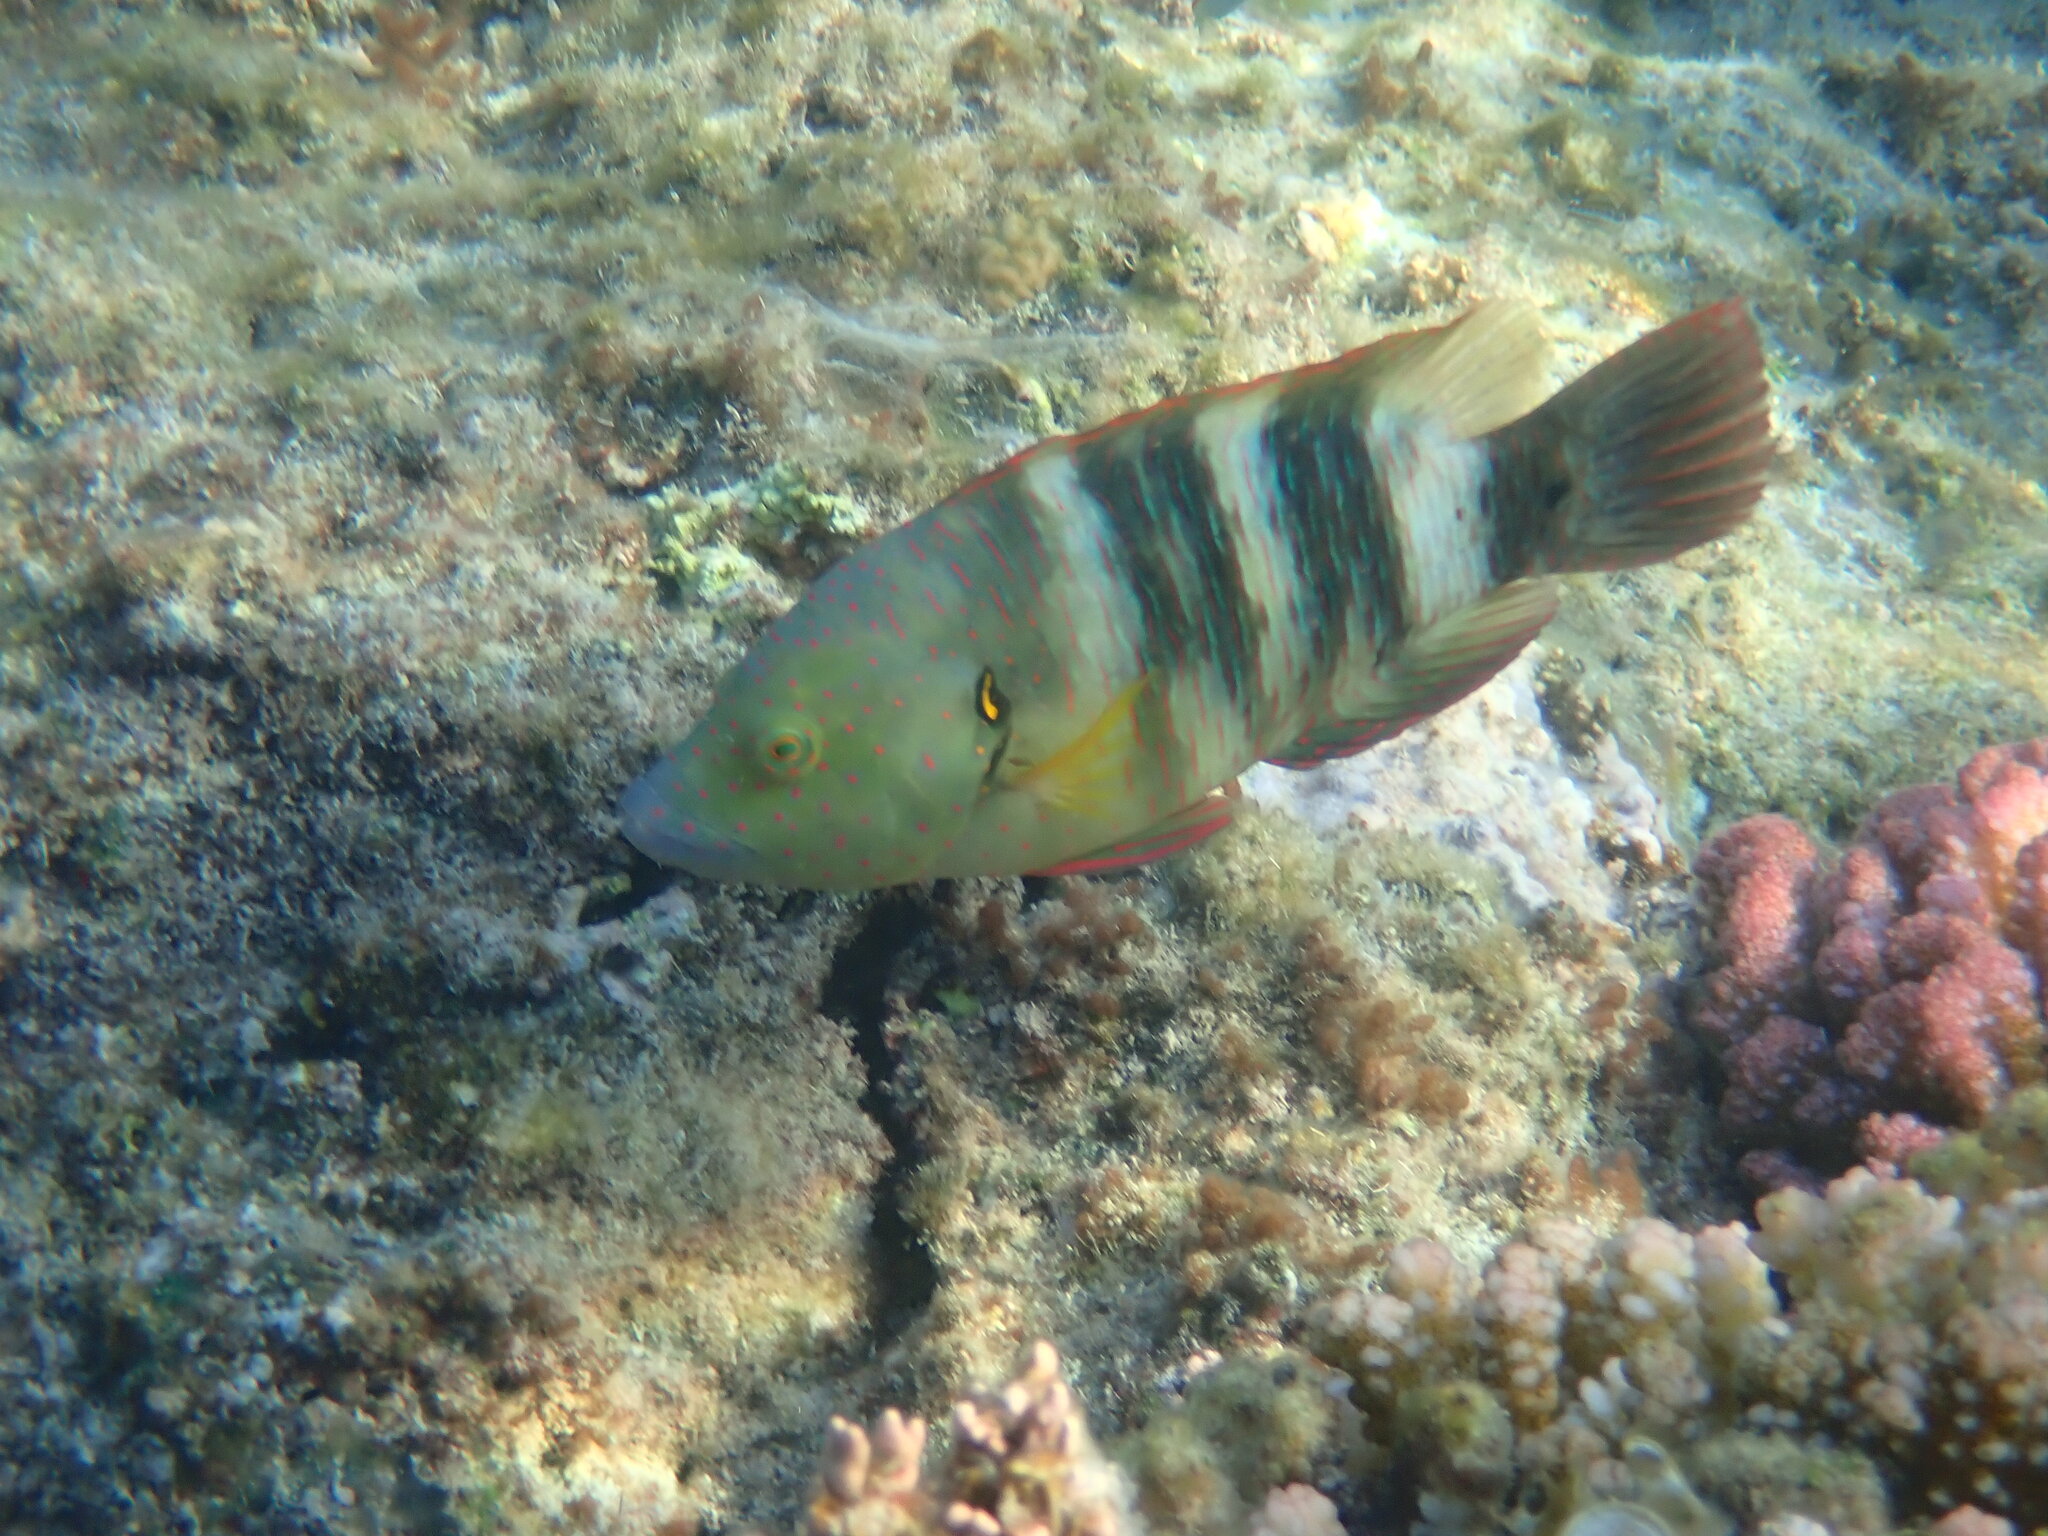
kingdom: Animalia
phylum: Chordata
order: Perciformes
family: Labridae
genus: Cheilinus
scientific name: Cheilinus lunulatus
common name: Broomtail wrasse
